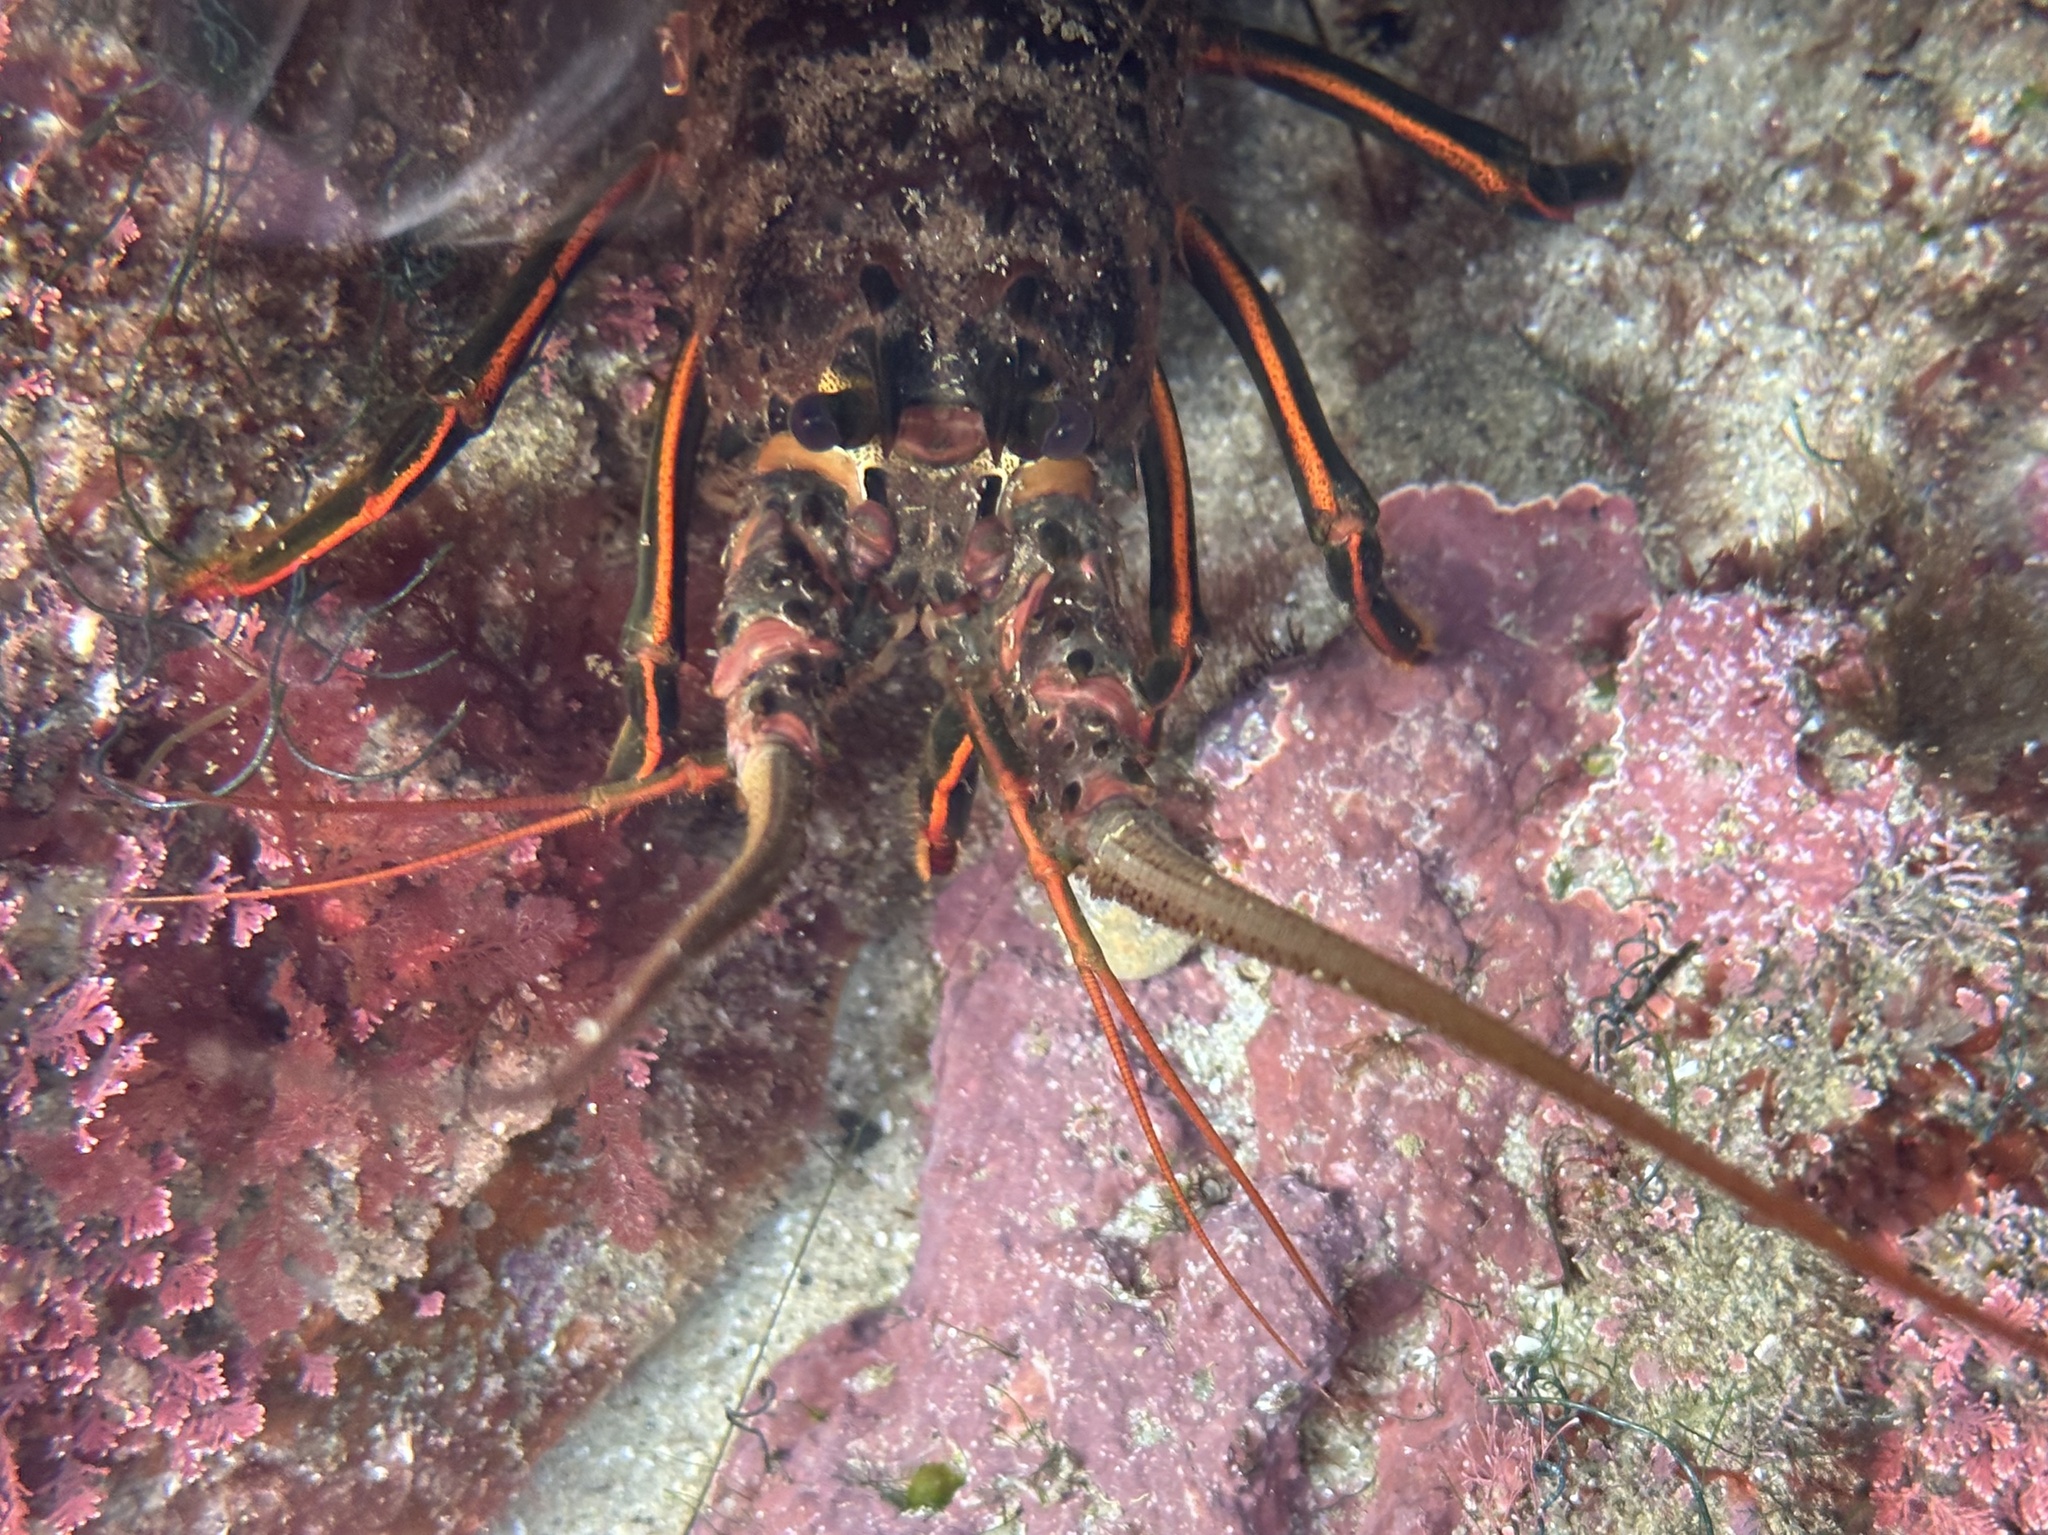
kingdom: Animalia
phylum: Arthropoda
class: Malacostraca
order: Decapoda
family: Palinuridae
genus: Panulirus
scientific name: Panulirus interruptus
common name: California spiny lobster
